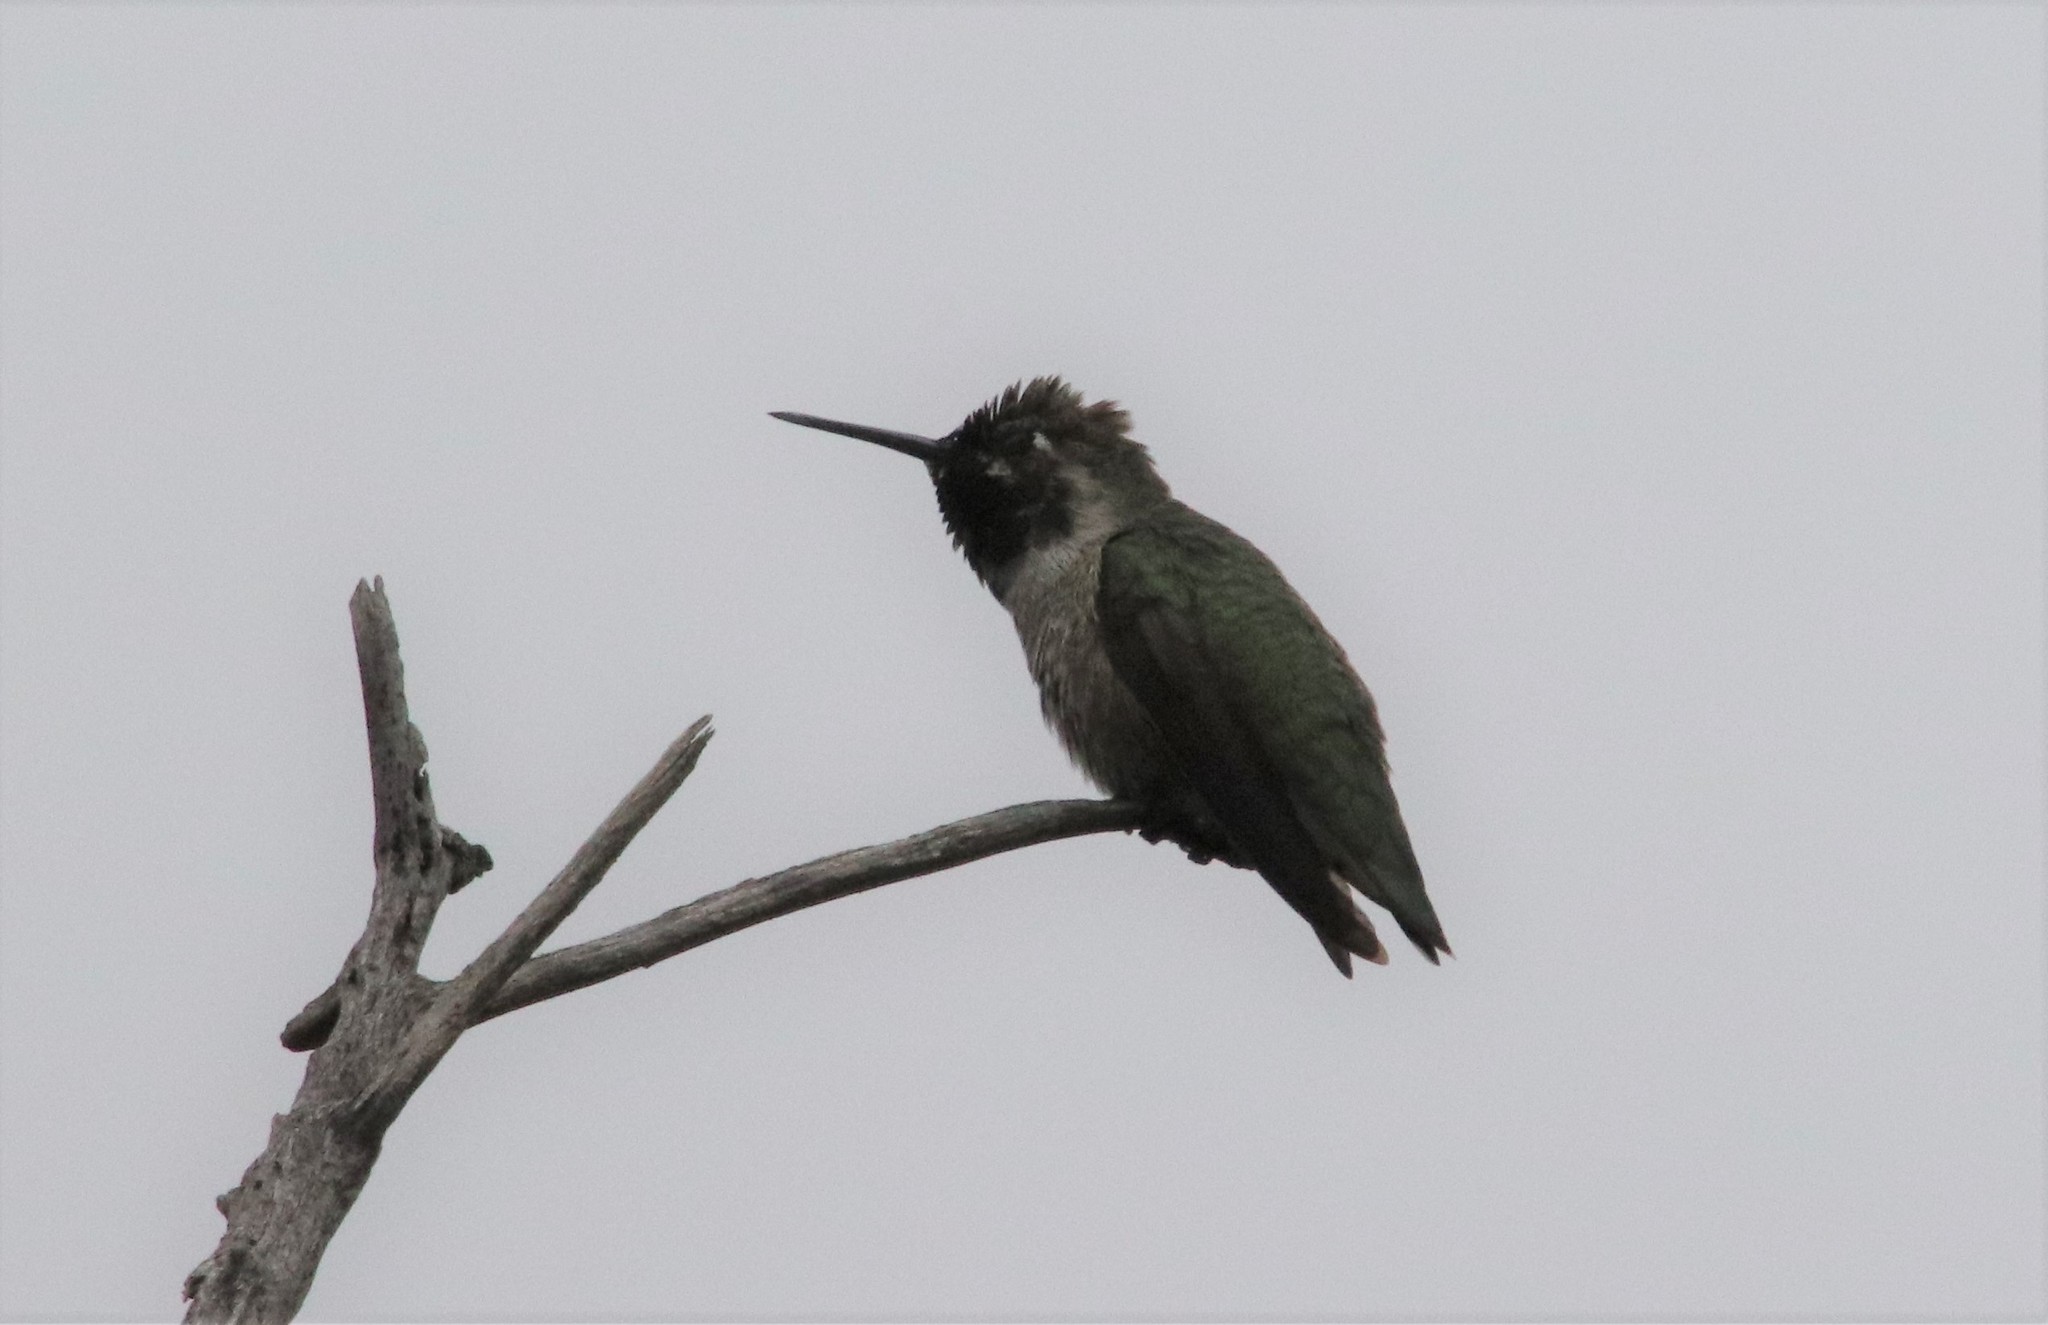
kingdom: Animalia
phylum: Chordata
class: Aves
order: Apodiformes
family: Trochilidae
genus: Archilochus
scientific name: Archilochus alexandri
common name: Black-chinned hummingbird
